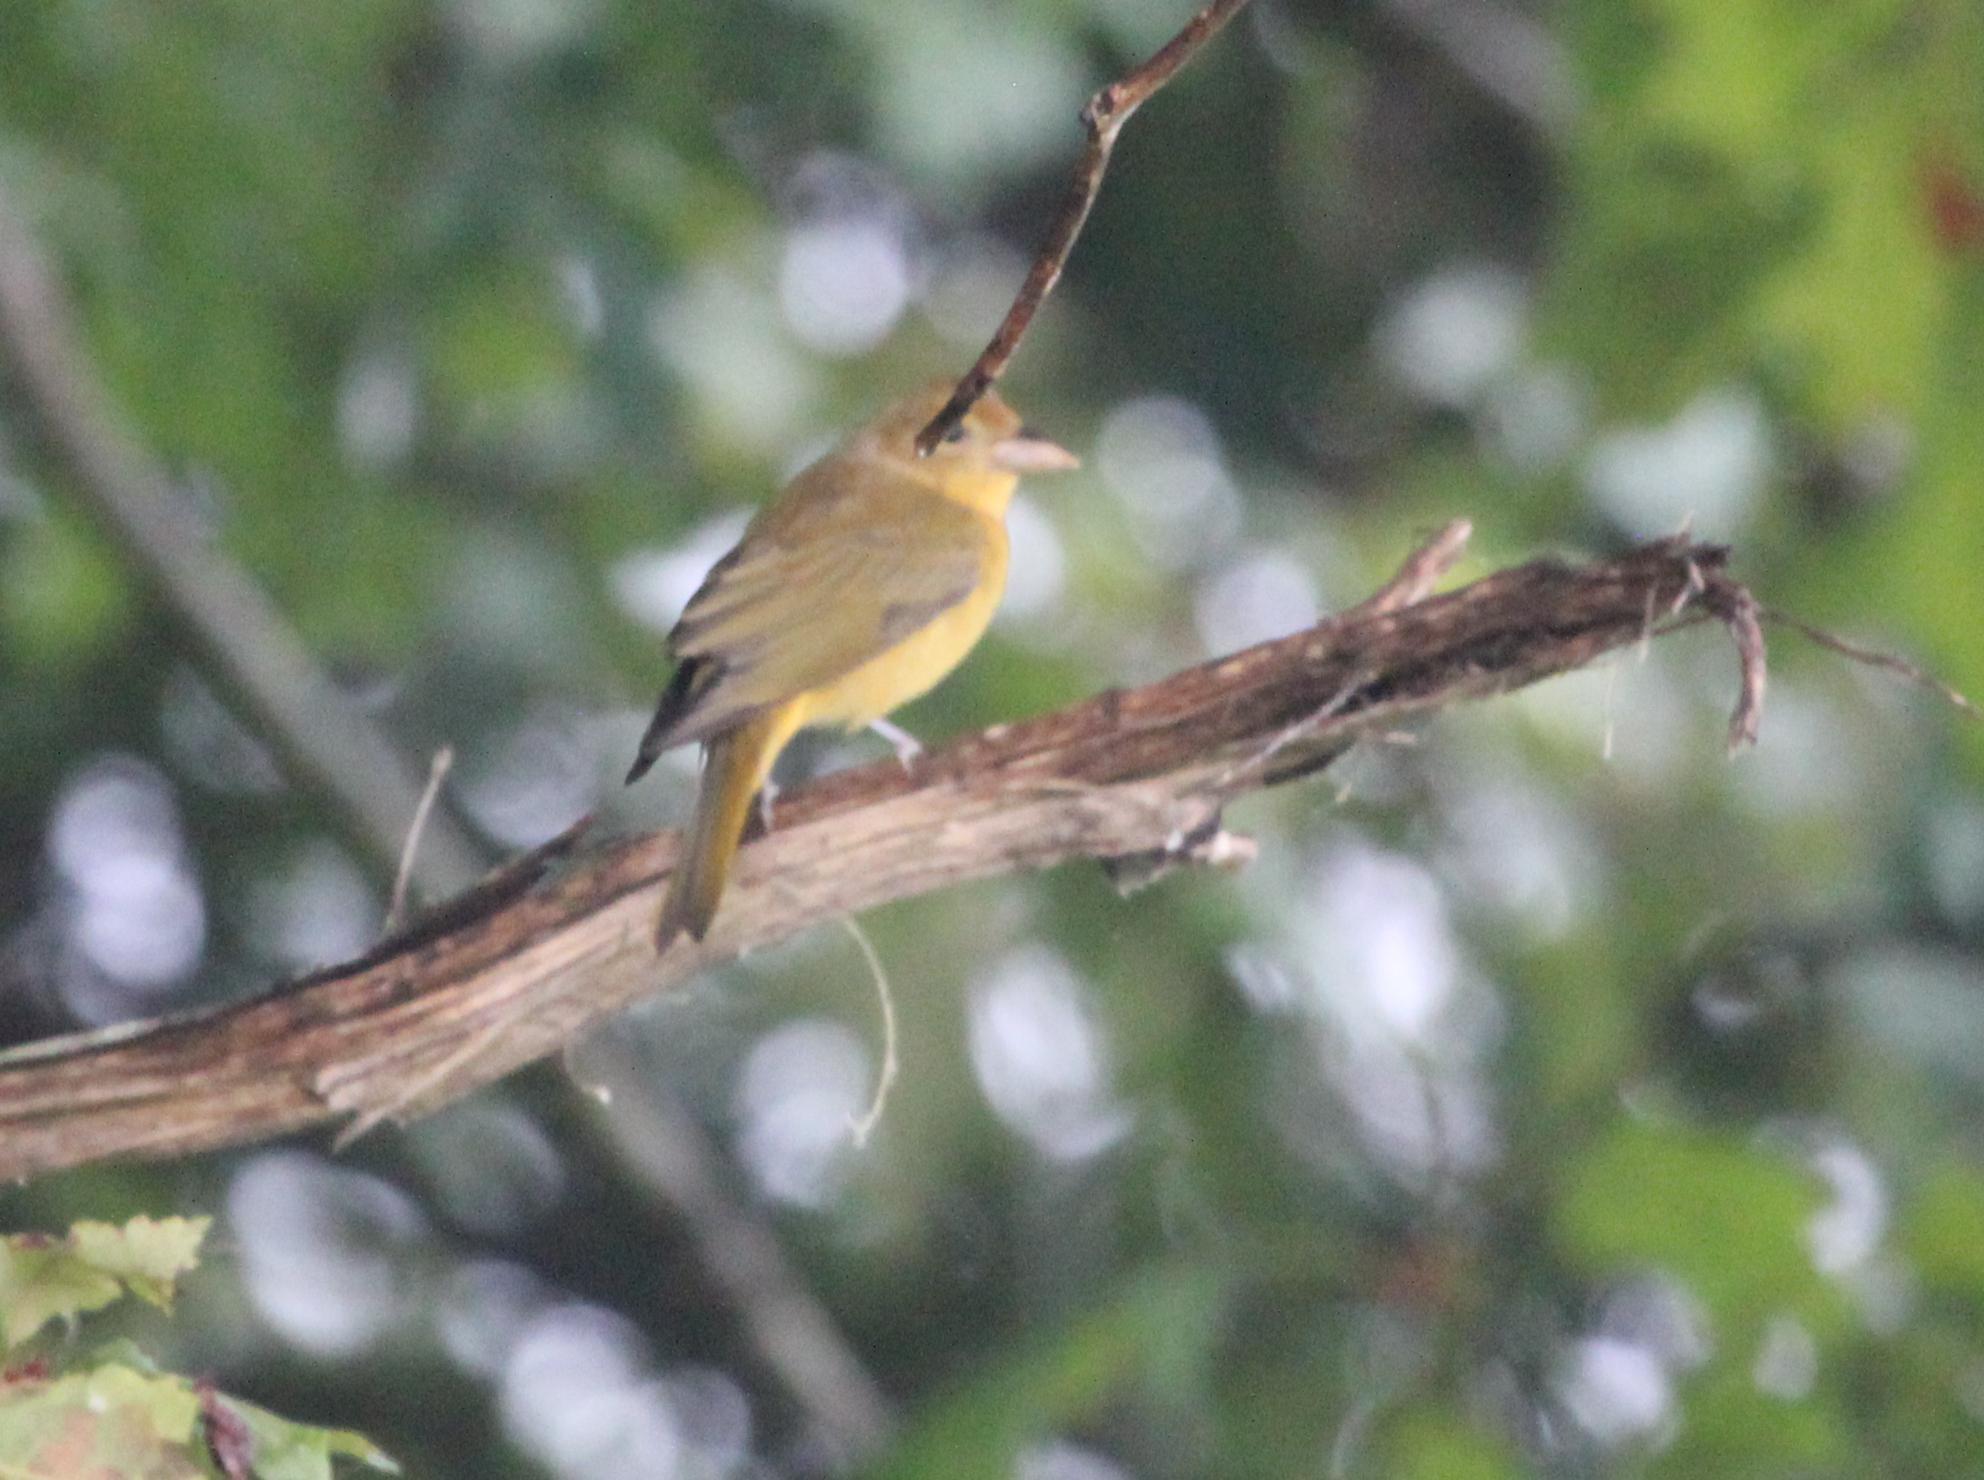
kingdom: Animalia
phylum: Chordata
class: Aves
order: Passeriformes
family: Cardinalidae
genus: Piranga
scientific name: Piranga rubra
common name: Summer tanager
